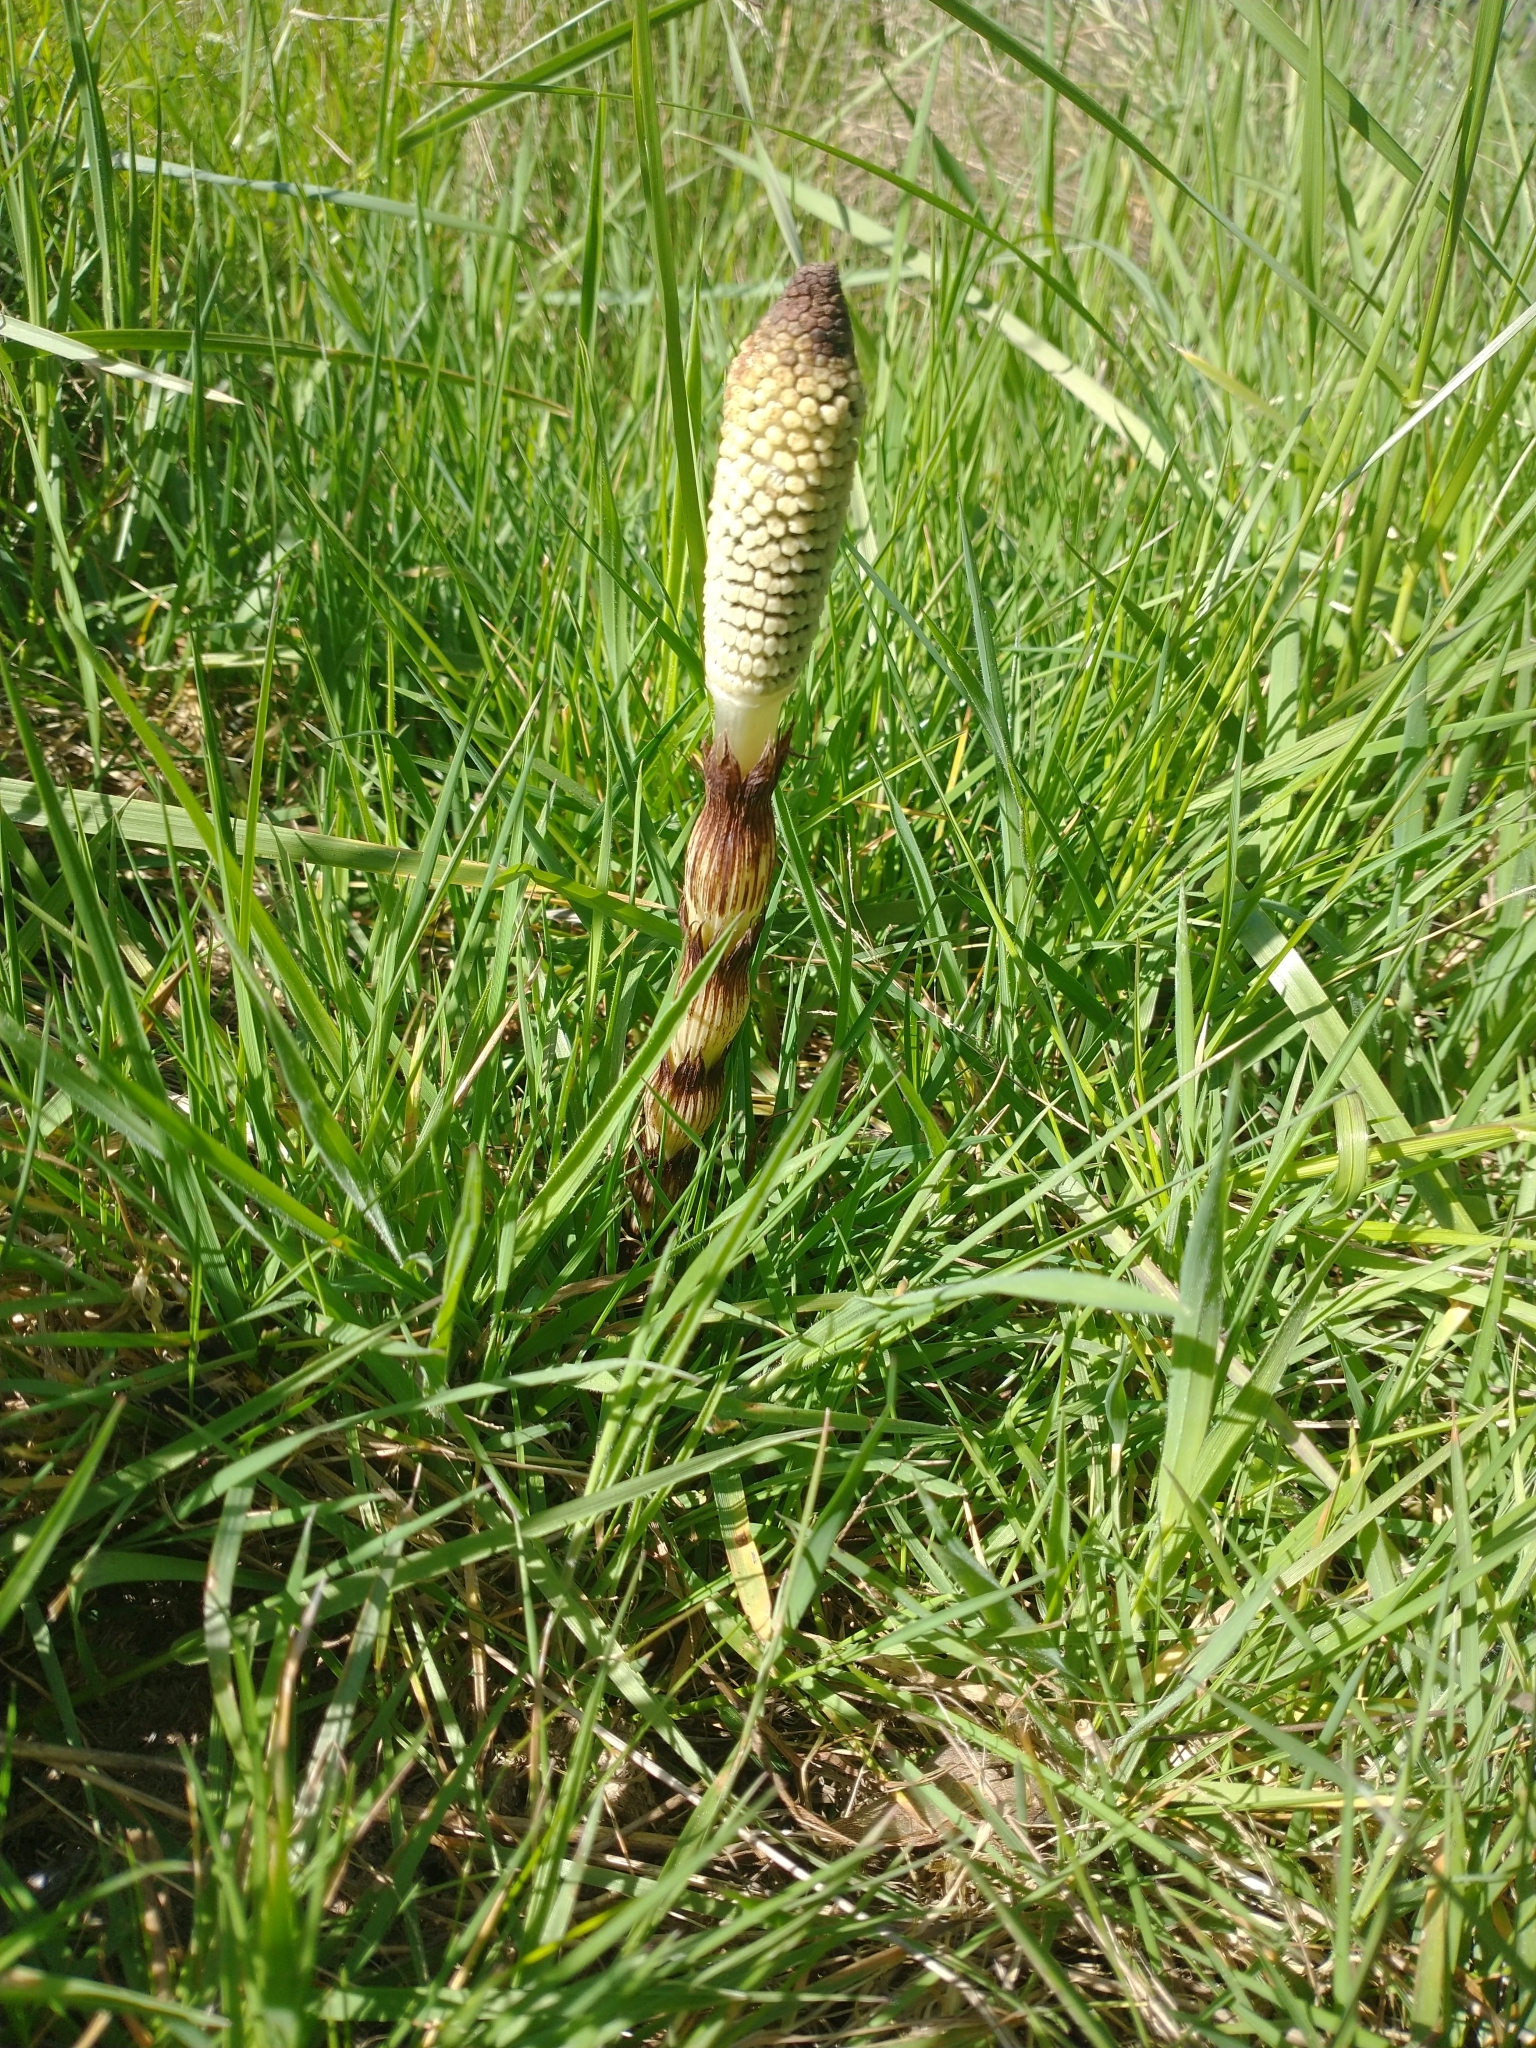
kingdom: Plantae
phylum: Tracheophyta
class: Polypodiopsida
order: Equisetales
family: Equisetaceae
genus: Equisetum
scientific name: Equisetum telmateia
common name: Great horsetail
